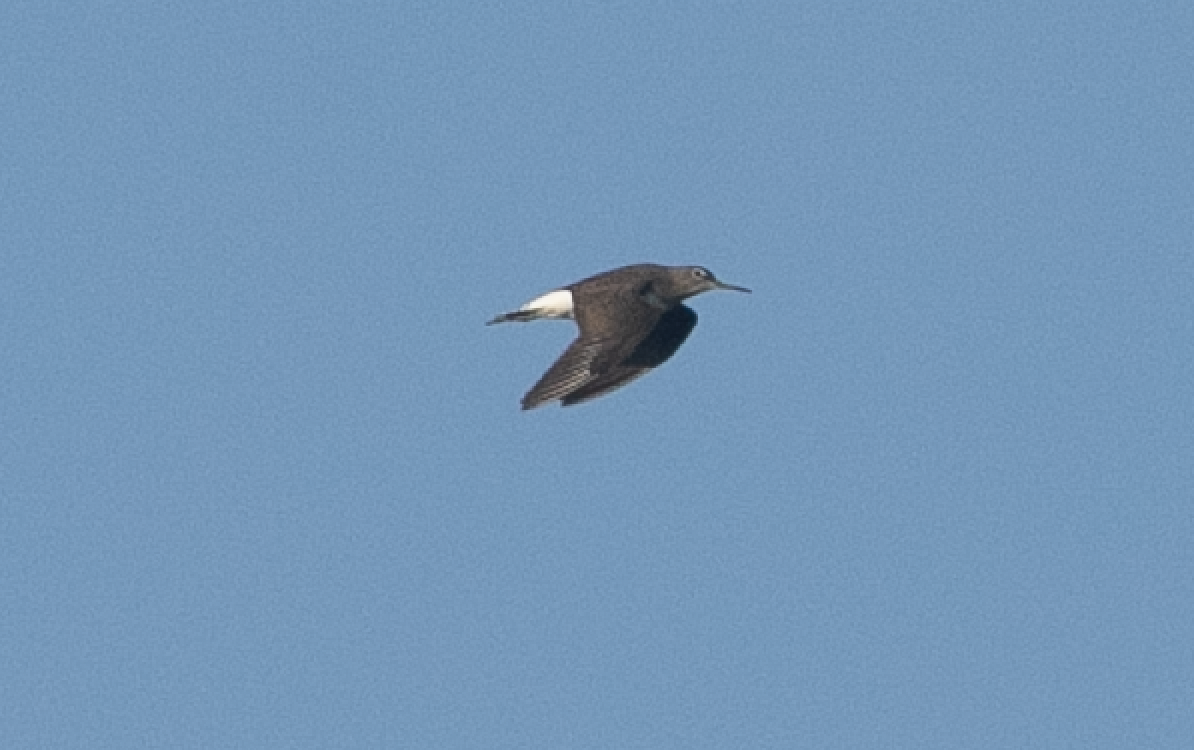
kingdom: Animalia
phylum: Chordata
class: Aves
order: Charadriiformes
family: Scolopacidae
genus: Tringa
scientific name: Tringa ochropus
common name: Green sandpiper
